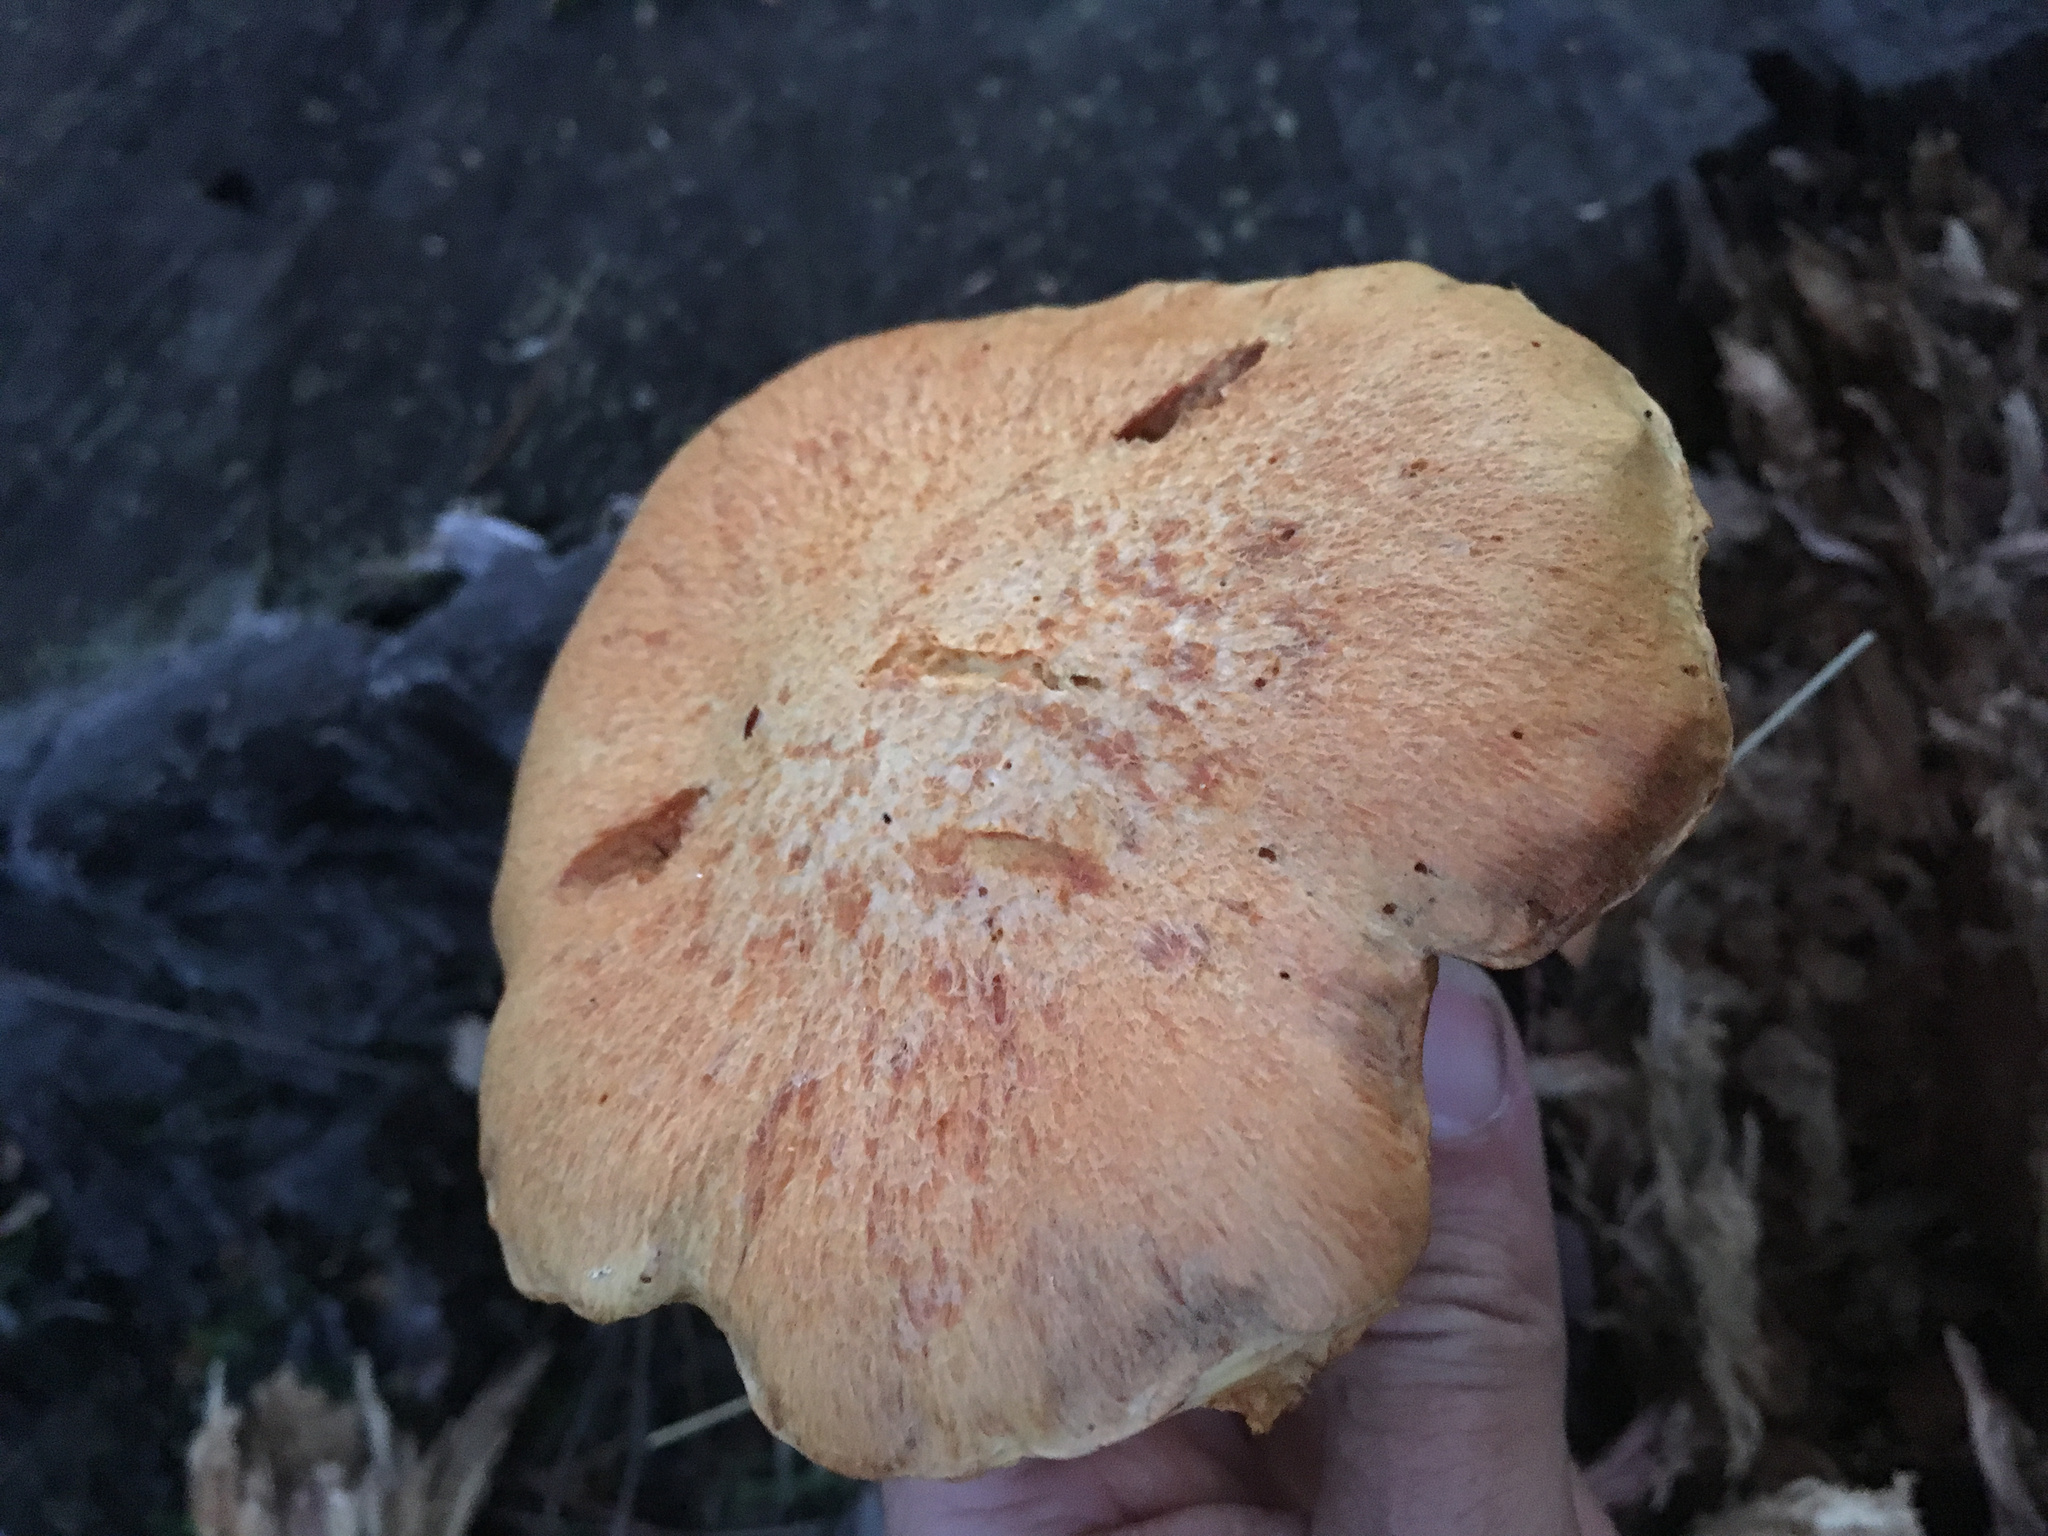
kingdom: Fungi
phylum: Basidiomycota
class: Agaricomycetes
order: Agaricales
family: Hymenogastraceae
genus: Gymnopilus
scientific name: Gymnopilus junonius
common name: Spectacular rustgill
